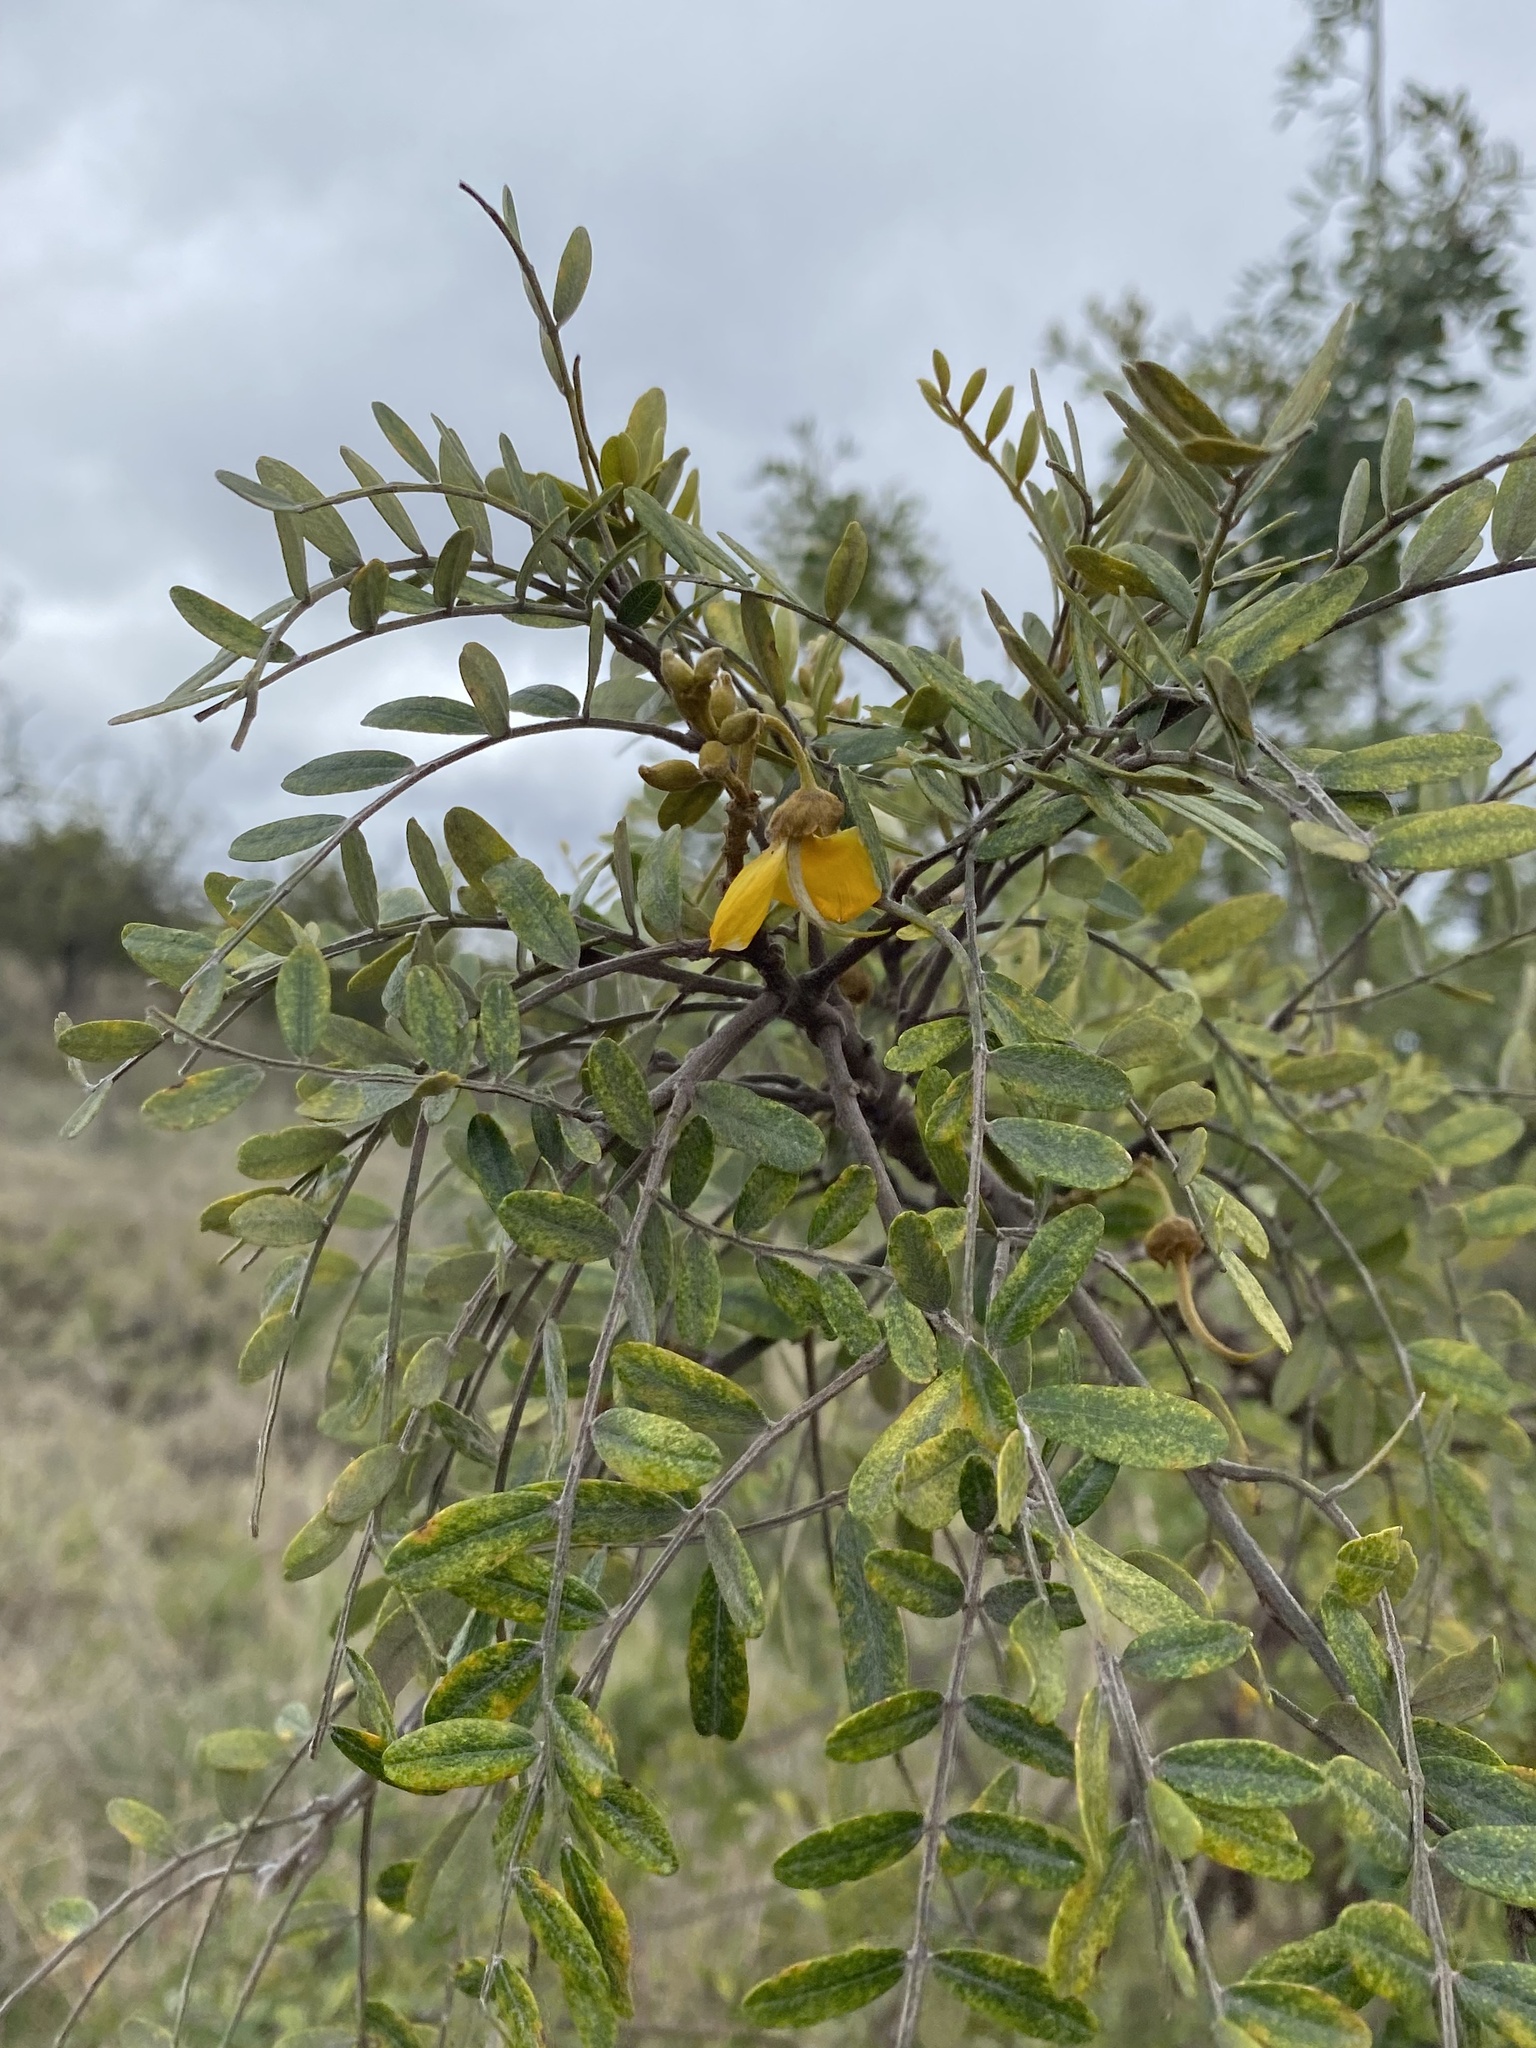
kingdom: Plantae
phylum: Tracheophyta
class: Magnoliopsida
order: Fabales
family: Fabaceae
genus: Sophora
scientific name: Sophora chrysophylla
